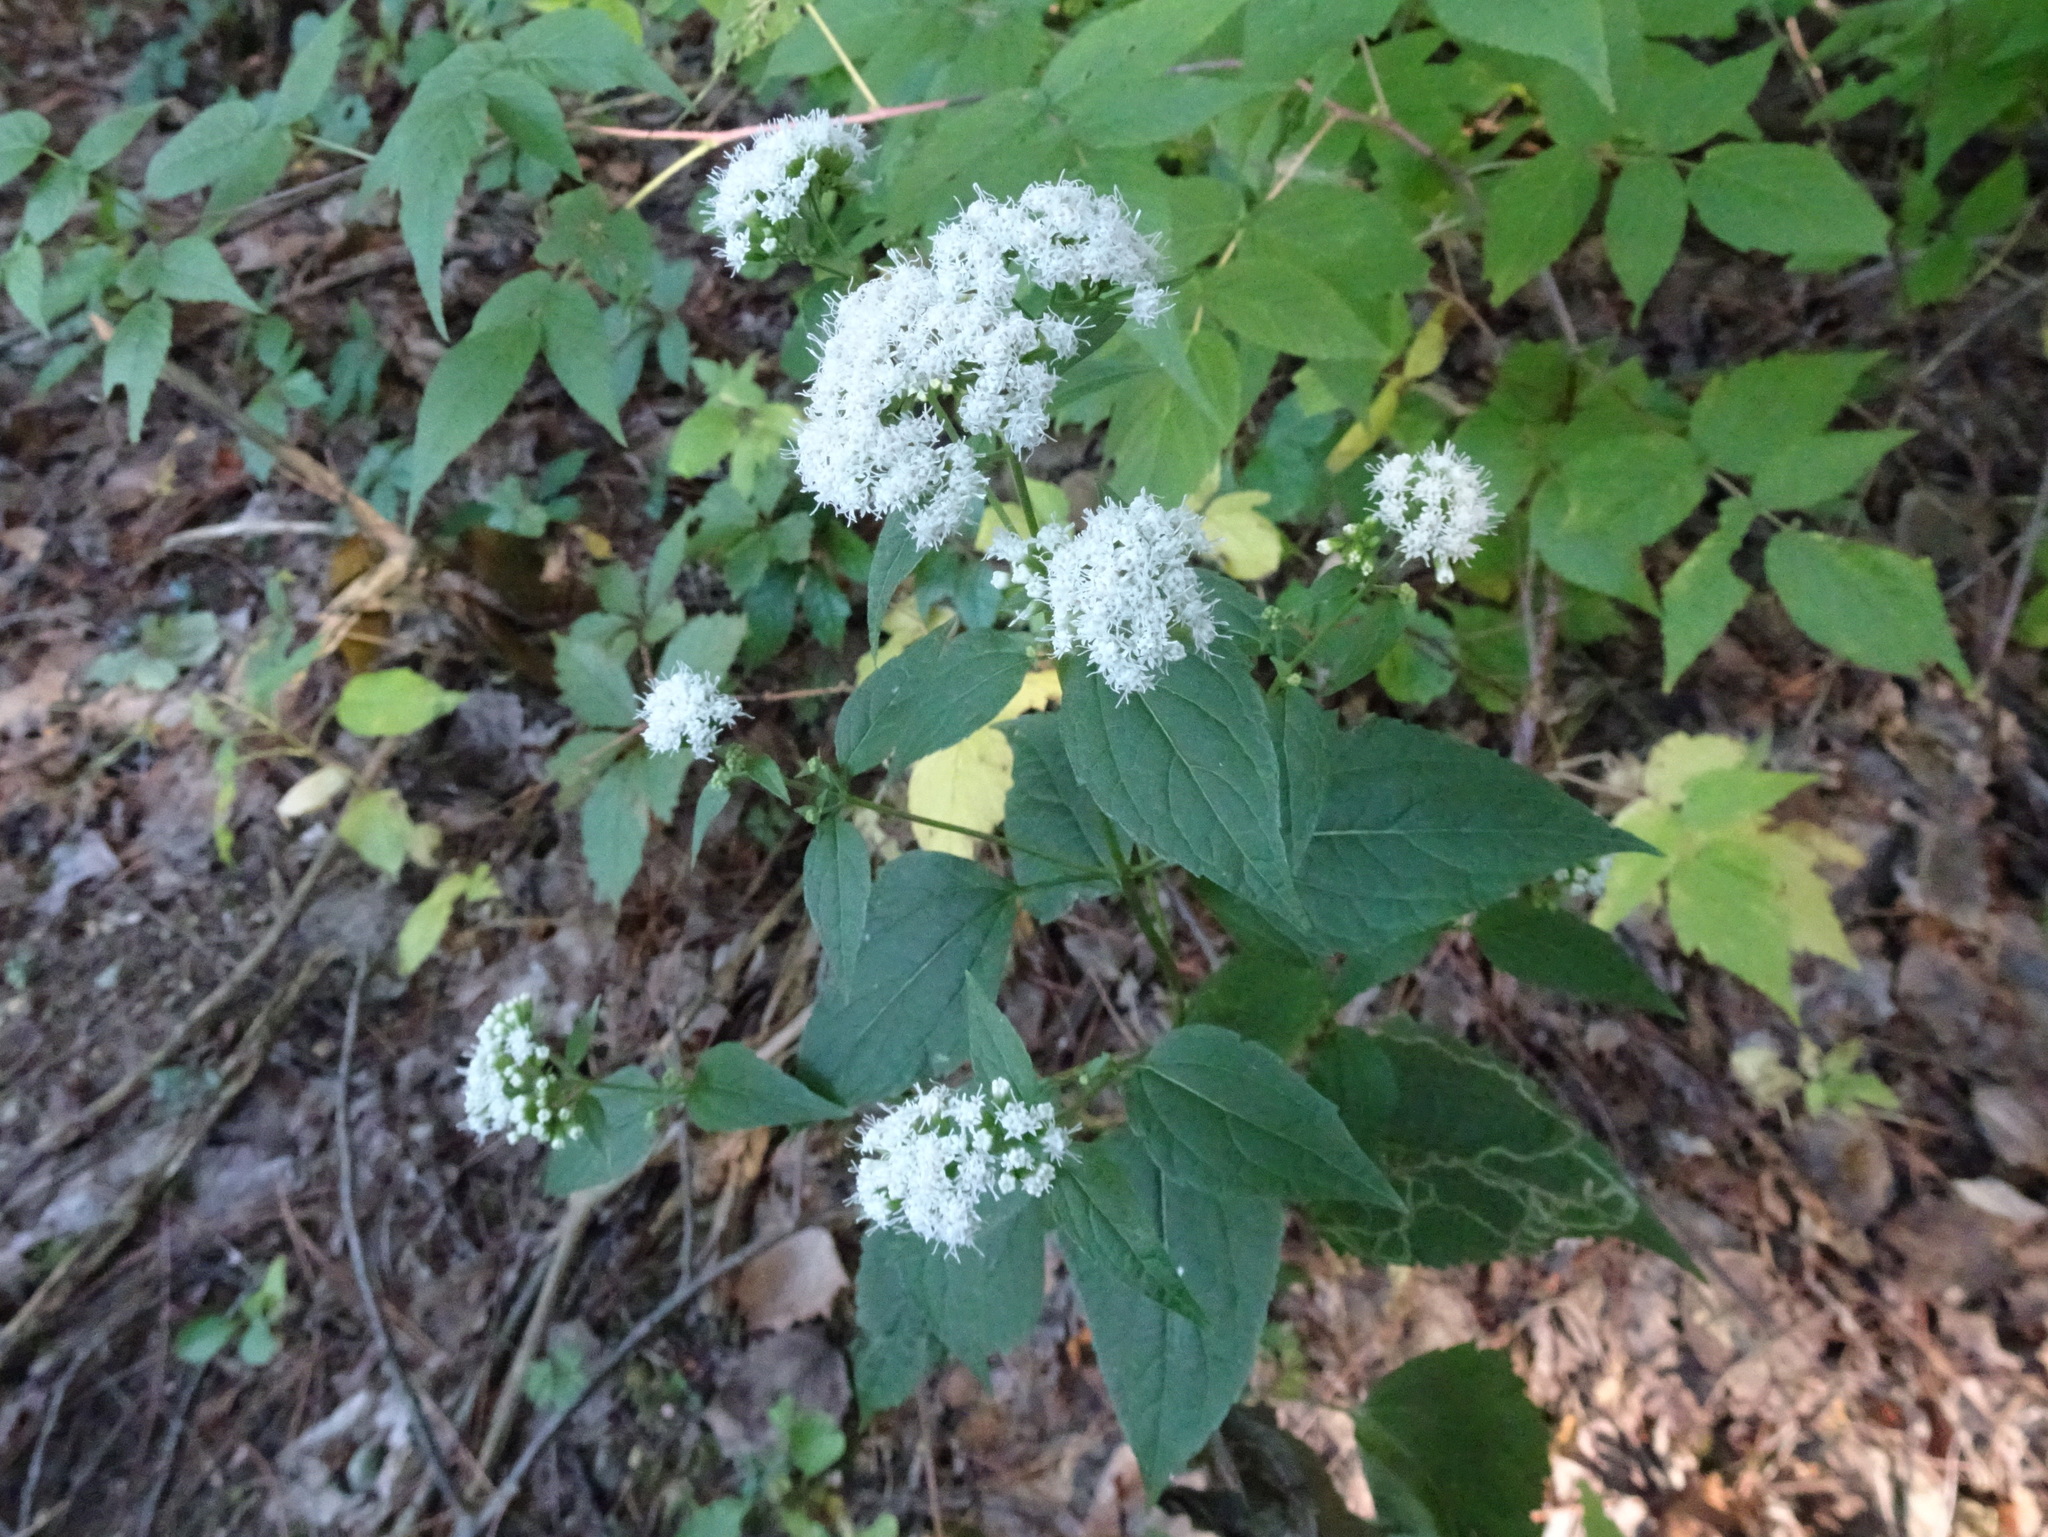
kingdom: Plantae
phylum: Tracheophyta
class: Magnoliopsida
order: Asterales
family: Asteraceae
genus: Ageratina
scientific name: Ageratina altissima
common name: White snakeroot
